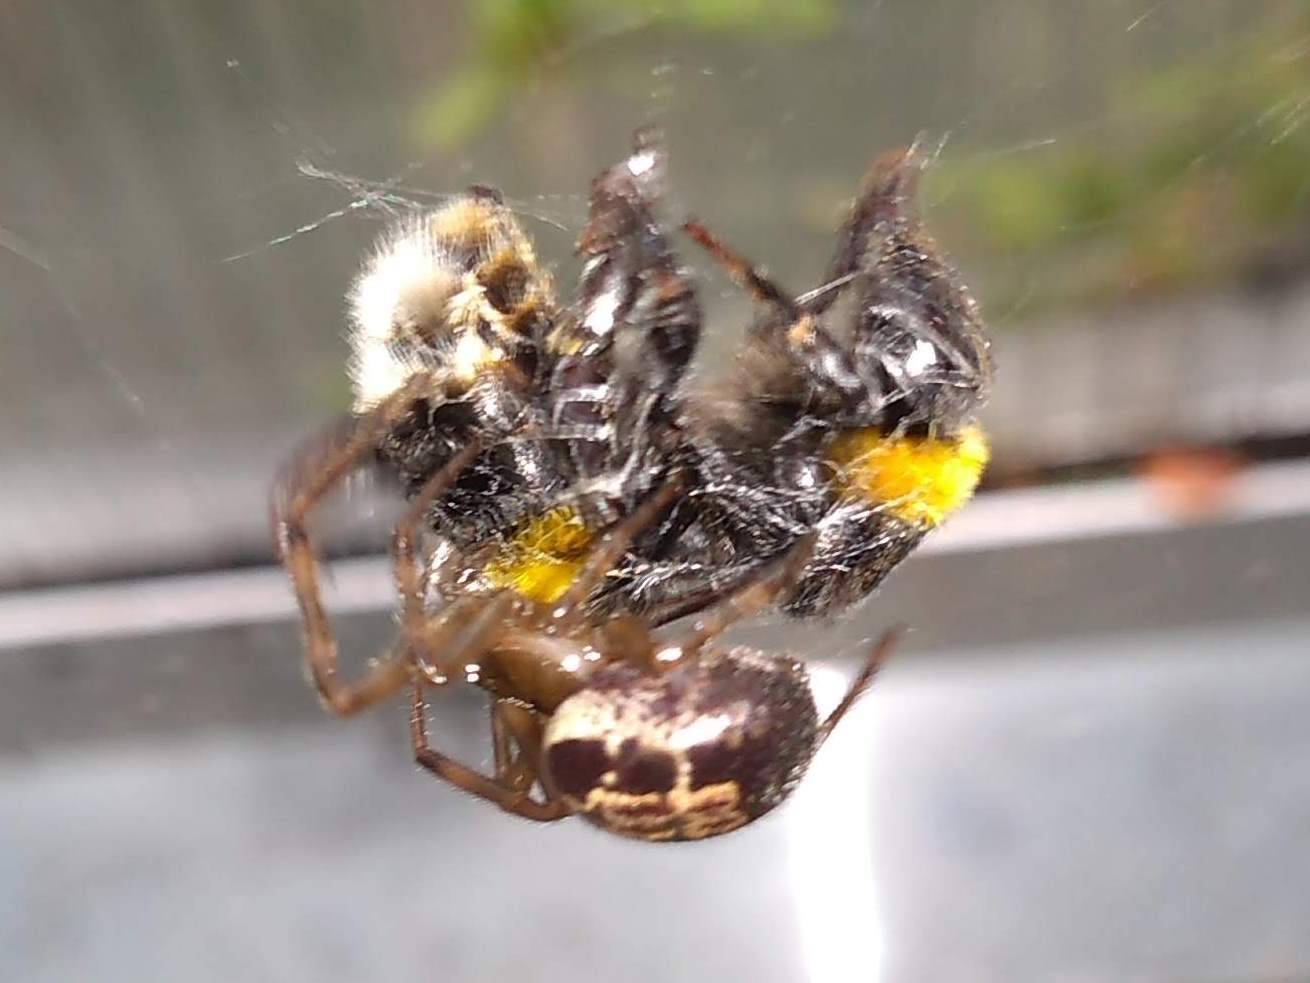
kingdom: Animalia
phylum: Arthropoda
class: Arachnida
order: Araneae
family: Theridiidae
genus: Steatoda
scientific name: Steatoda nobilis
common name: Cobweb weaver
